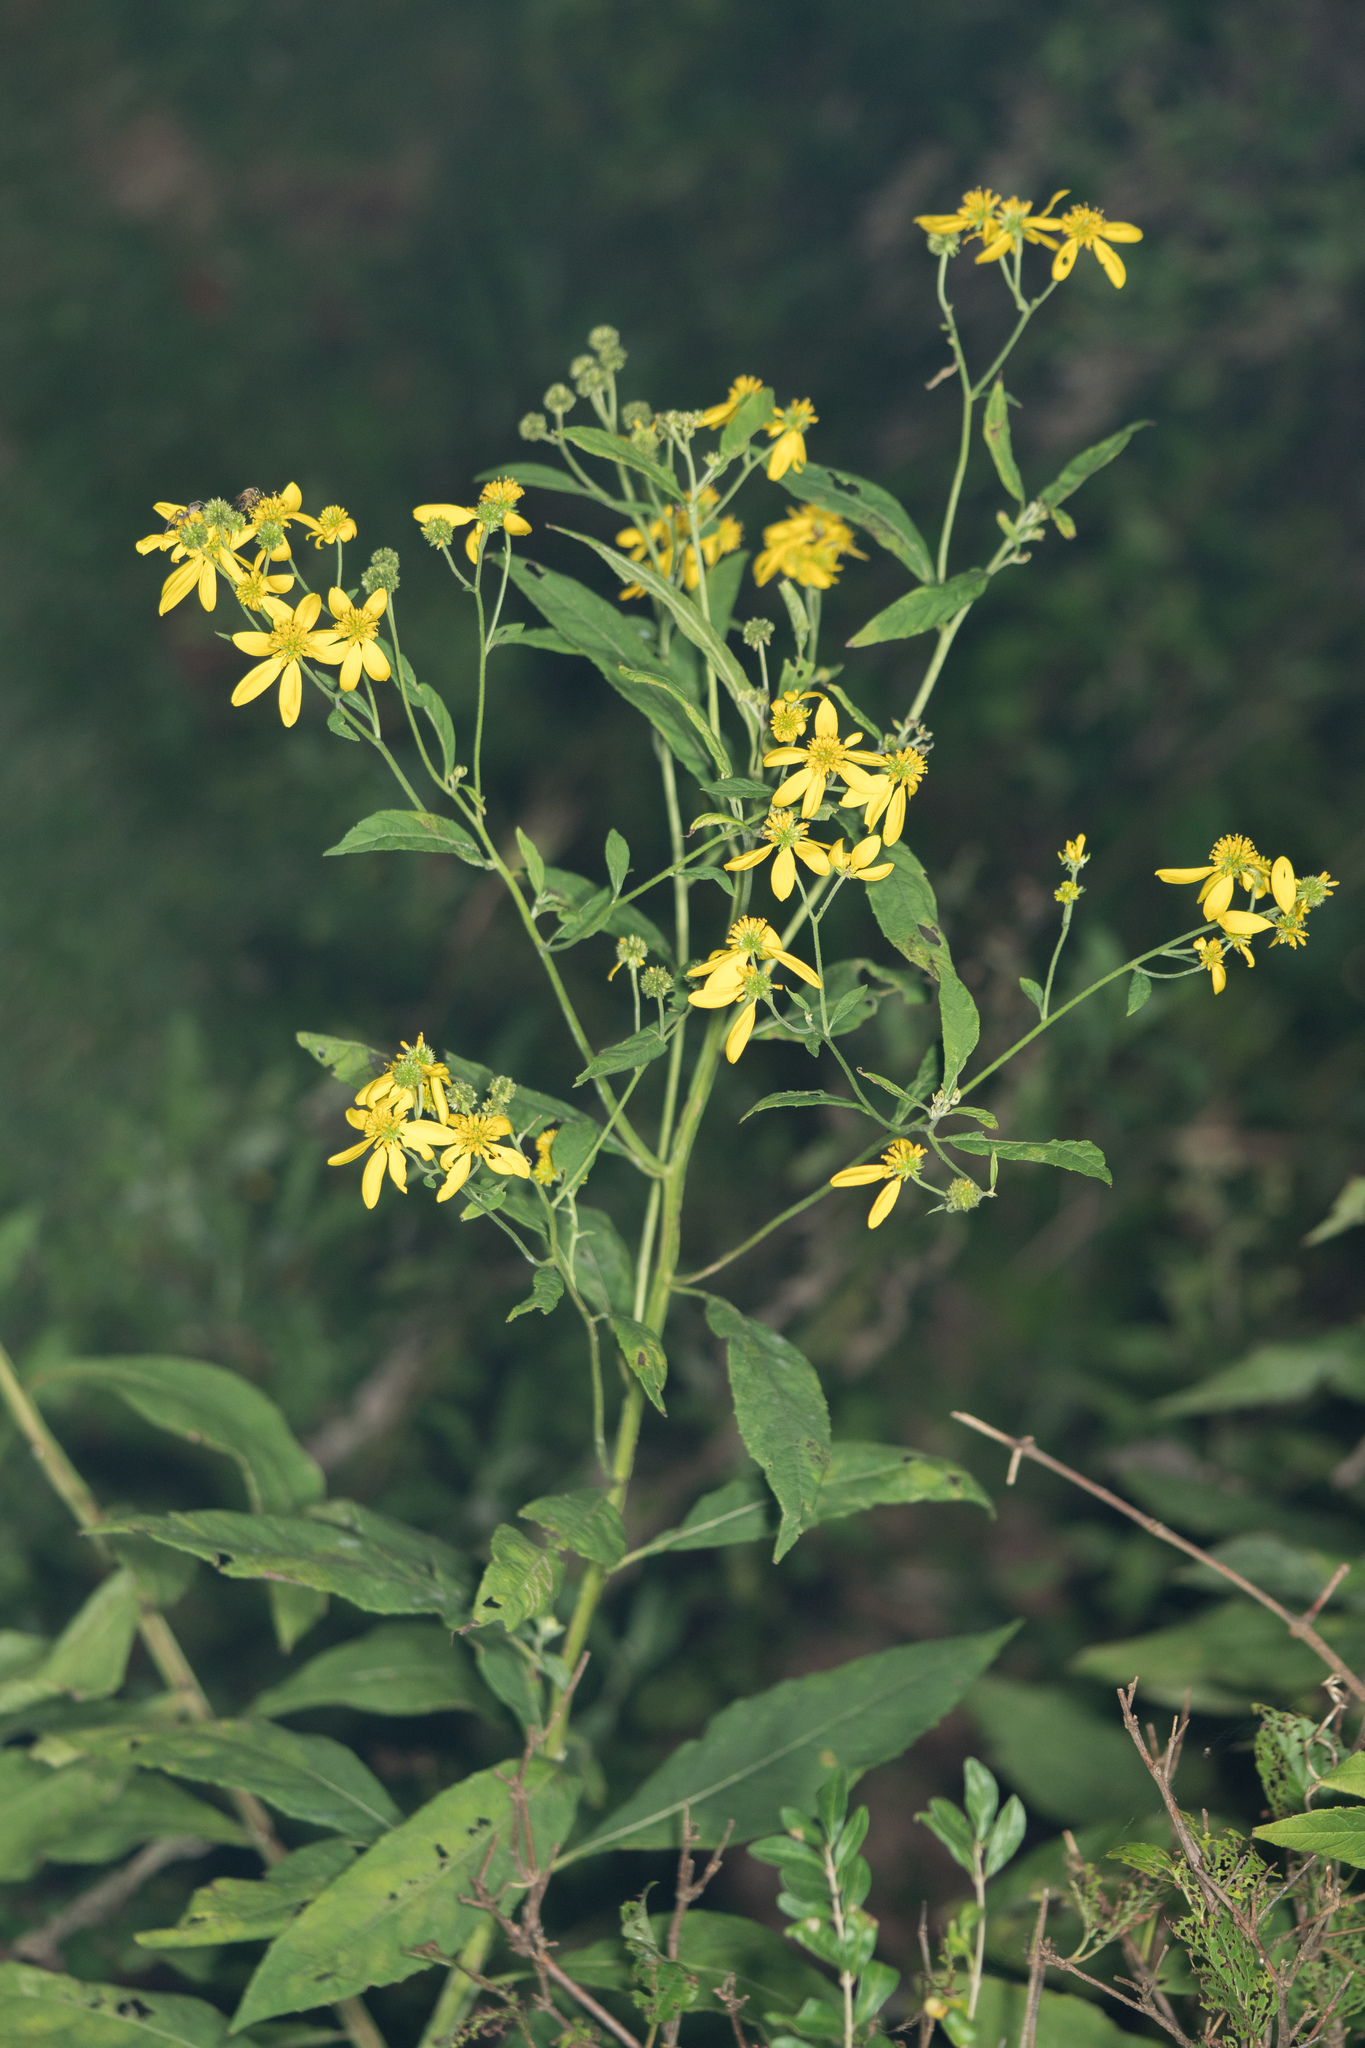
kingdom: Plantae
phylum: Tracheophyta
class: Magnoliopsida
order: Asterales
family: Asteraceae
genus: Verbesina
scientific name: Verbesina alternifolia
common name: Wingstem
